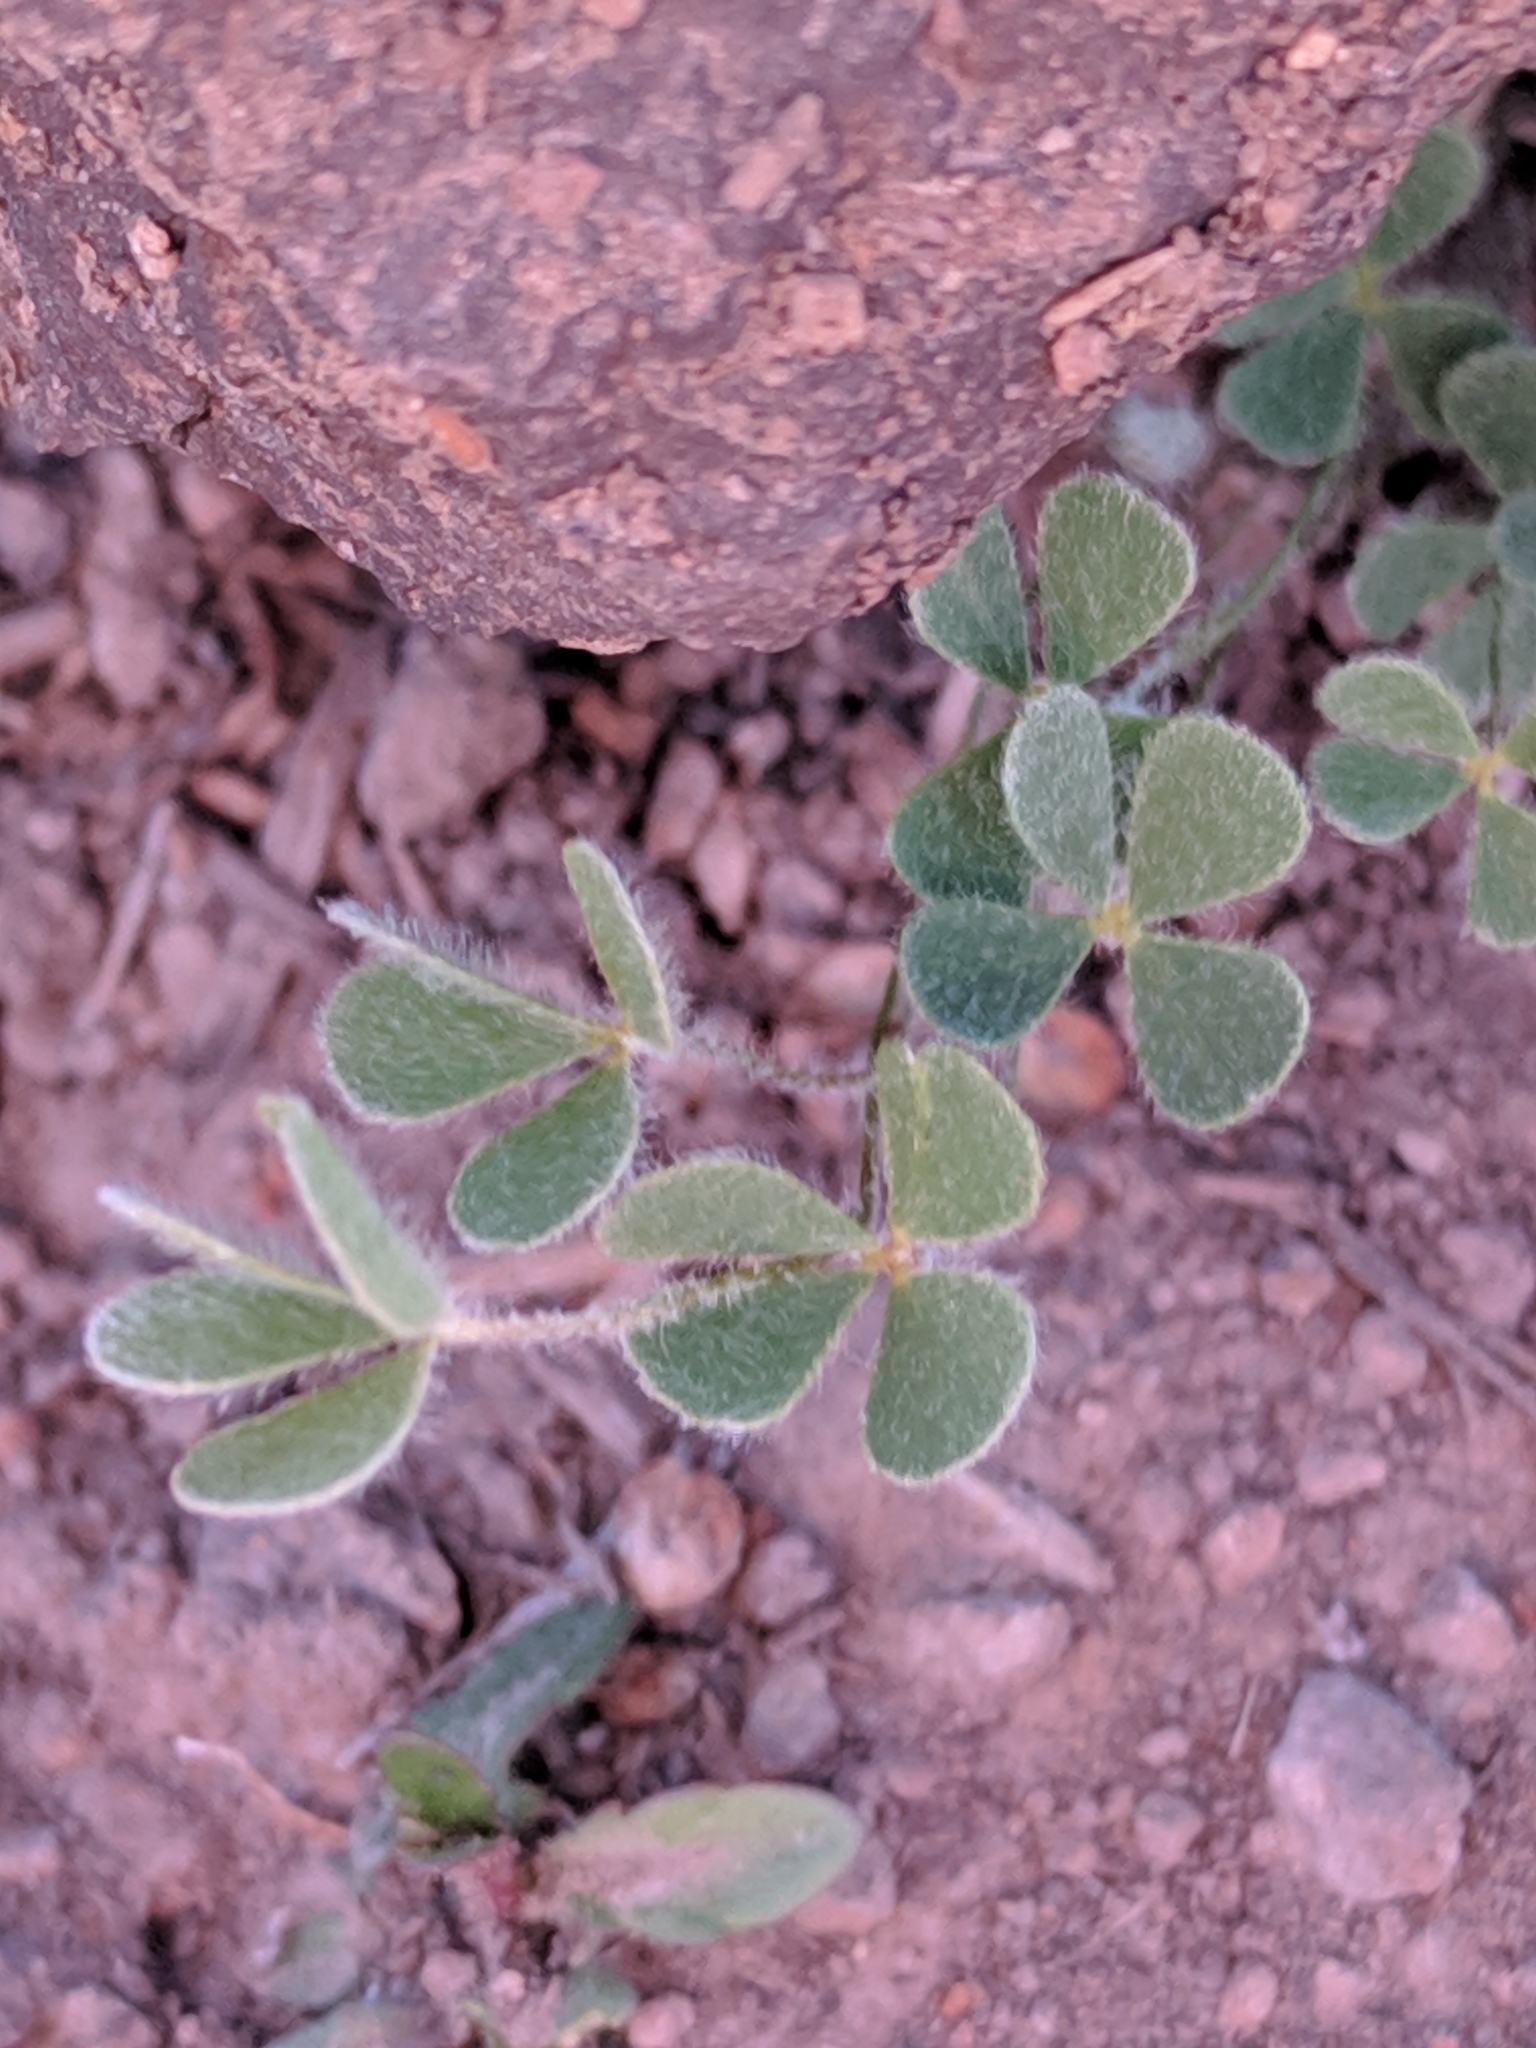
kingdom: Plantae
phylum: Tracheophyta
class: Polypodiopsida
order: Salviniales
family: Marsileaceae
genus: Marsilea
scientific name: Marsilea mollis
